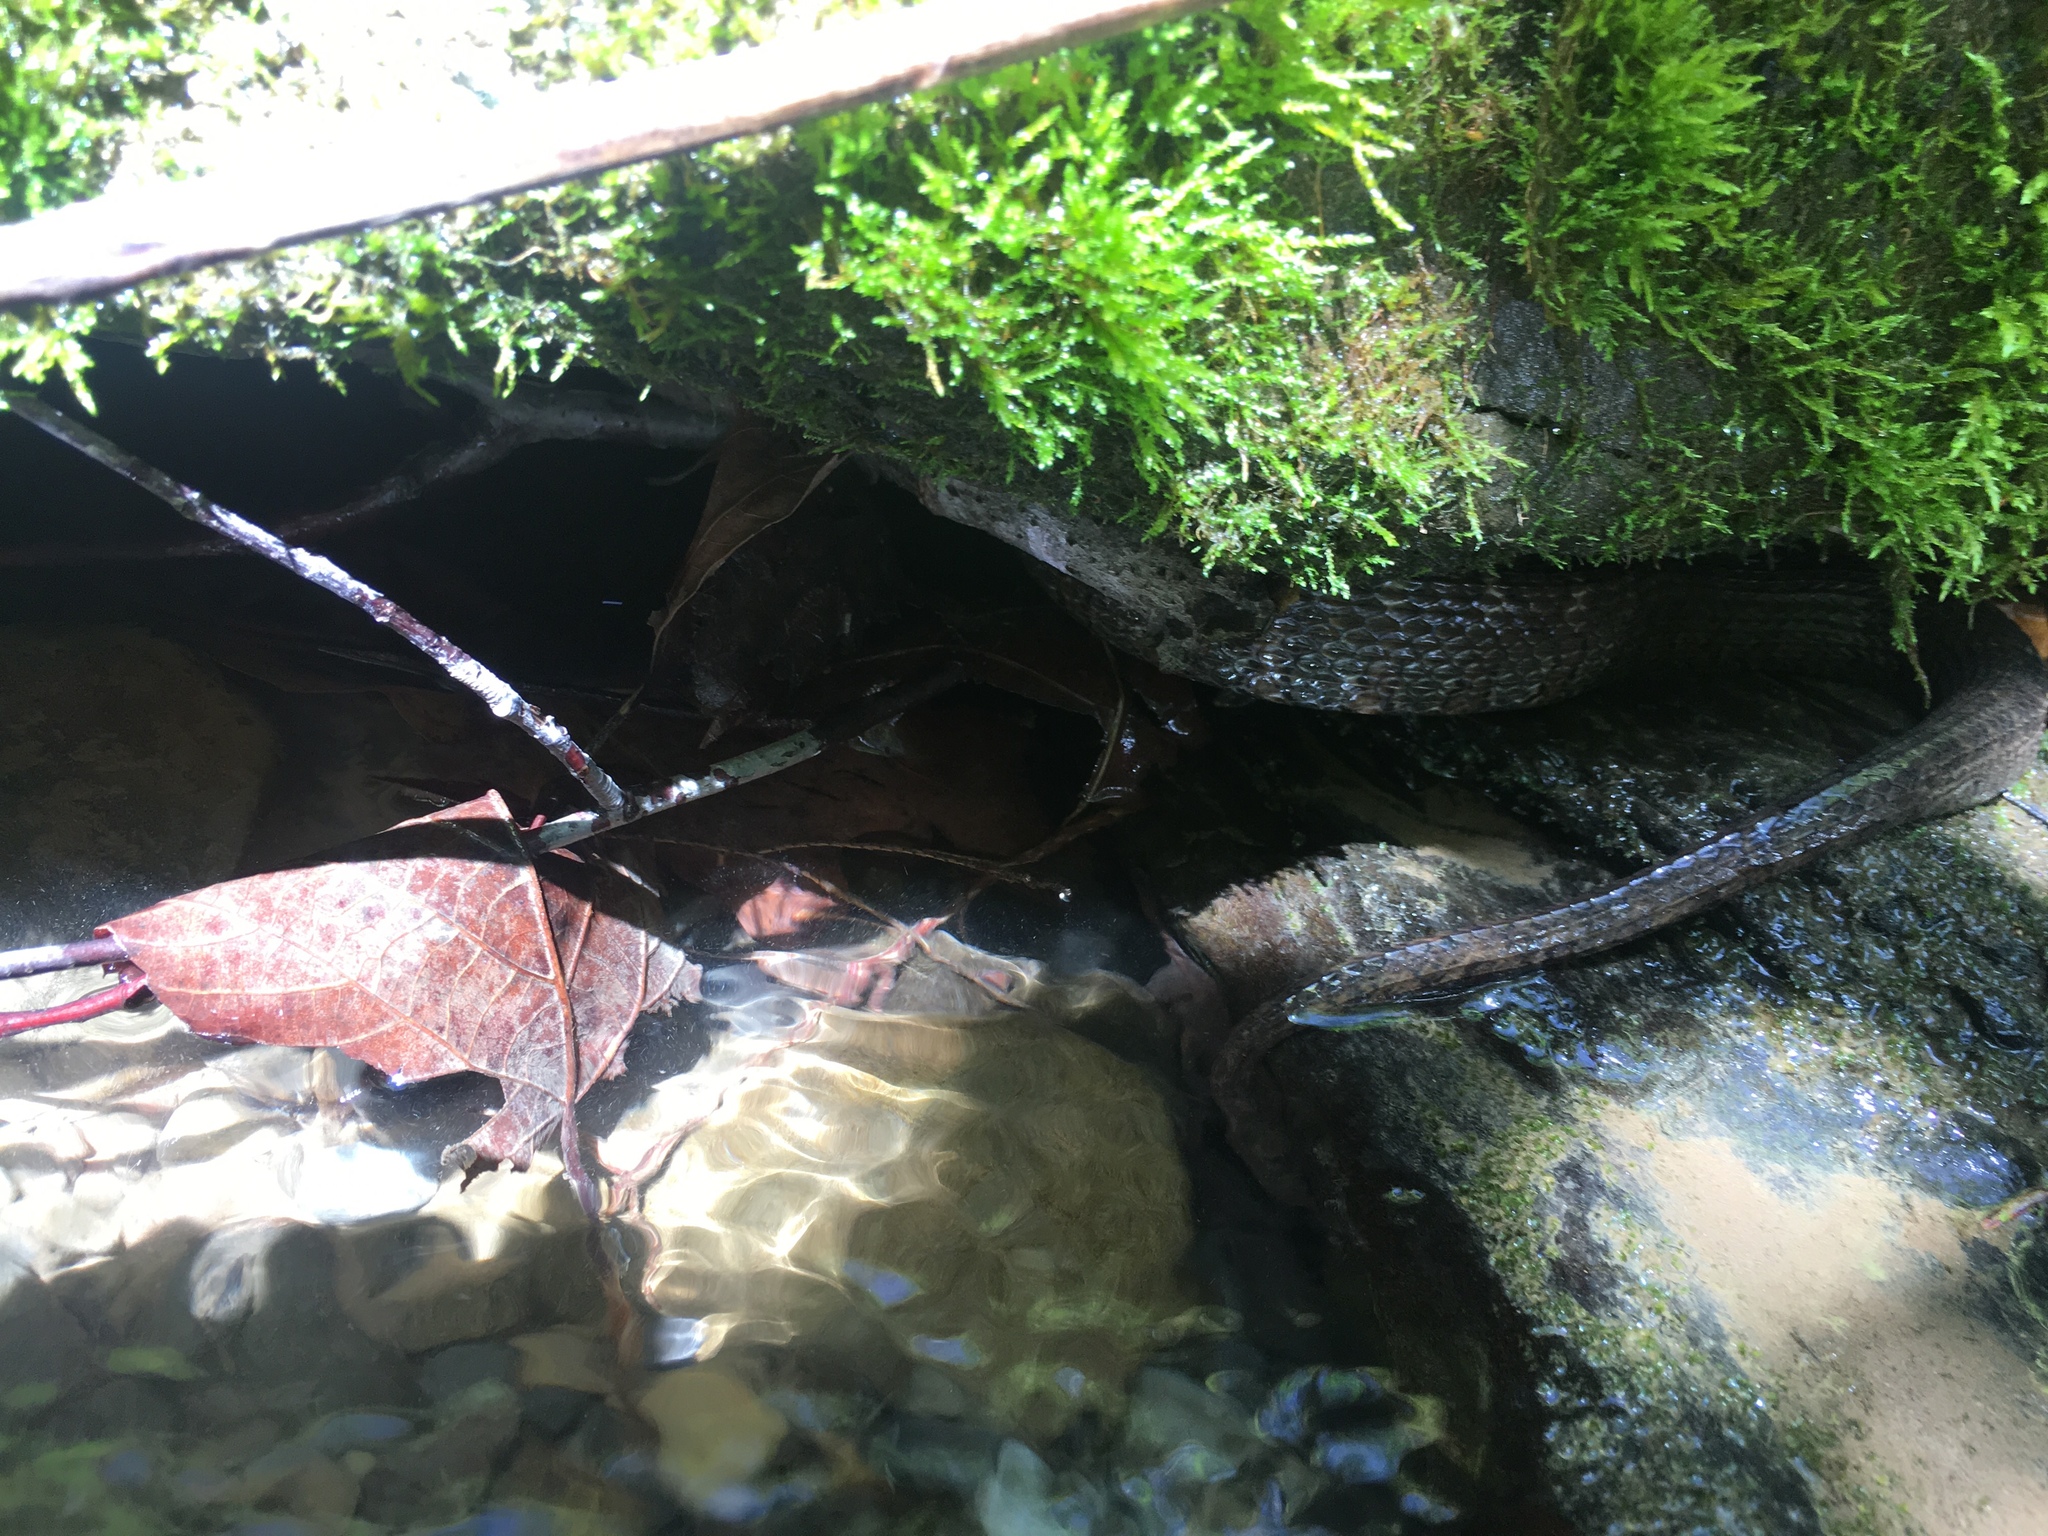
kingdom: Animalia
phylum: Chordata
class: Squamata
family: Colubridae
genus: Nerodia
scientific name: Nerodia sipedon
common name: Northern water snake
